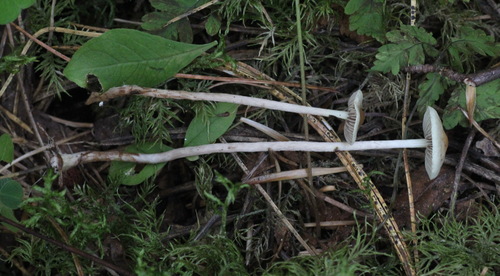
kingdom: Fungi
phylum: Basidiomycota
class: Agaricomycetes
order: Agaricales
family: Strophariaceae
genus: Hypholoma
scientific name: Hypholoma ericaeum
